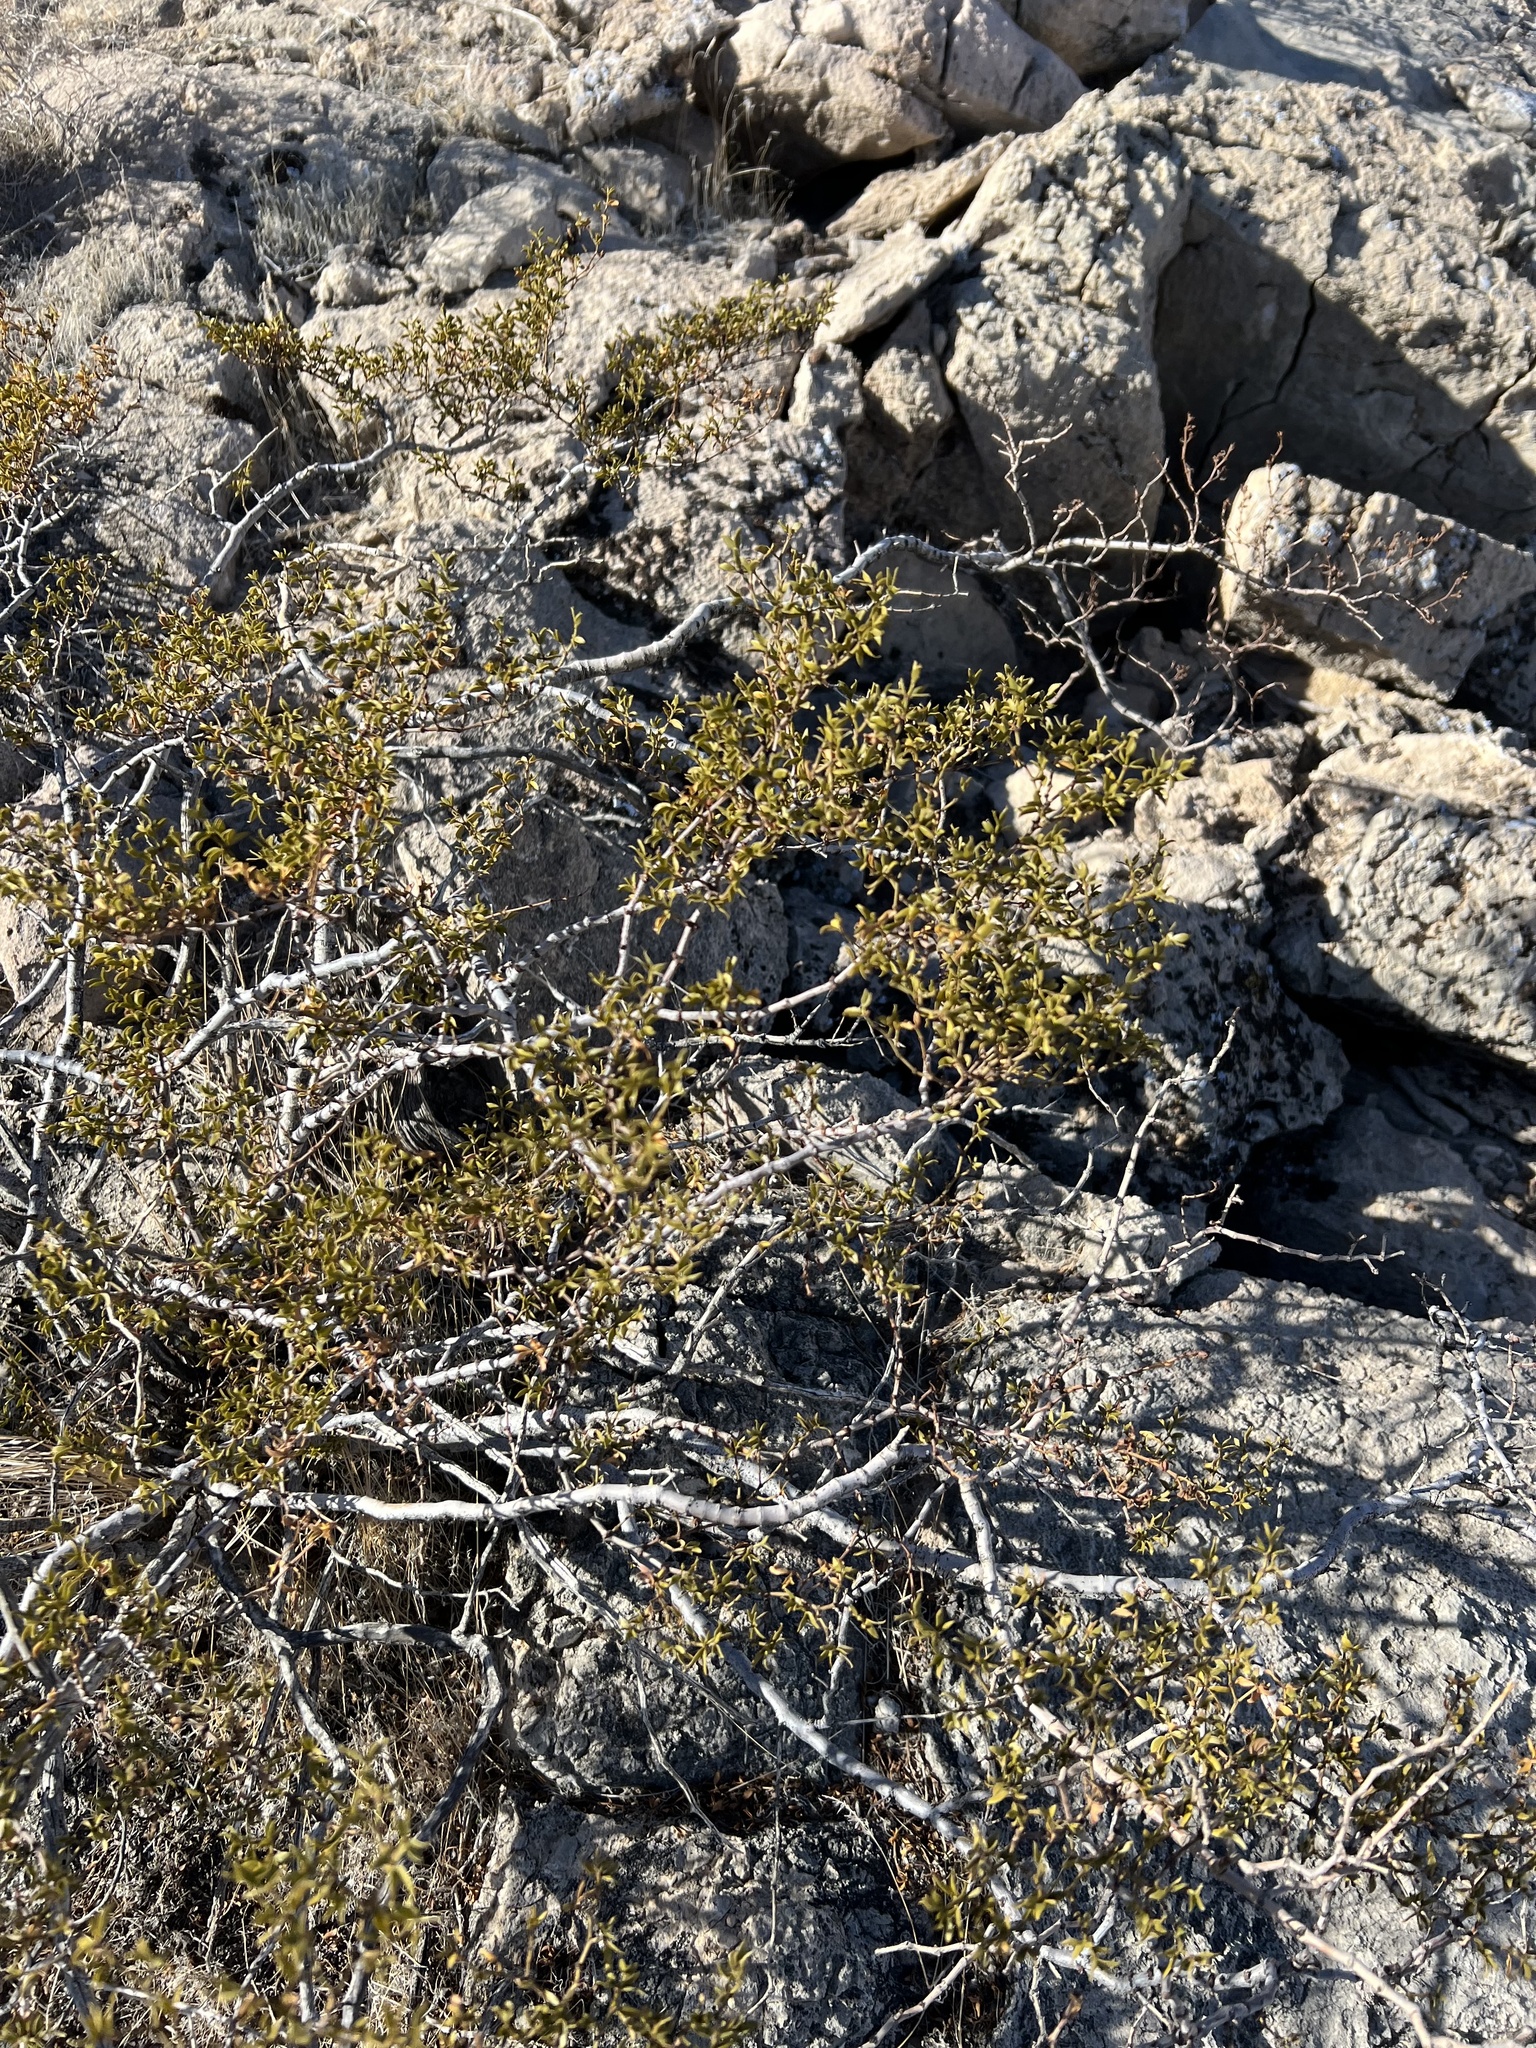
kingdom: Plantae
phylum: Tracheophyta
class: Magnoliopsida
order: Zygophyllales
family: Zygophyllaceae
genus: Larrea
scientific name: Larrea tridentata
